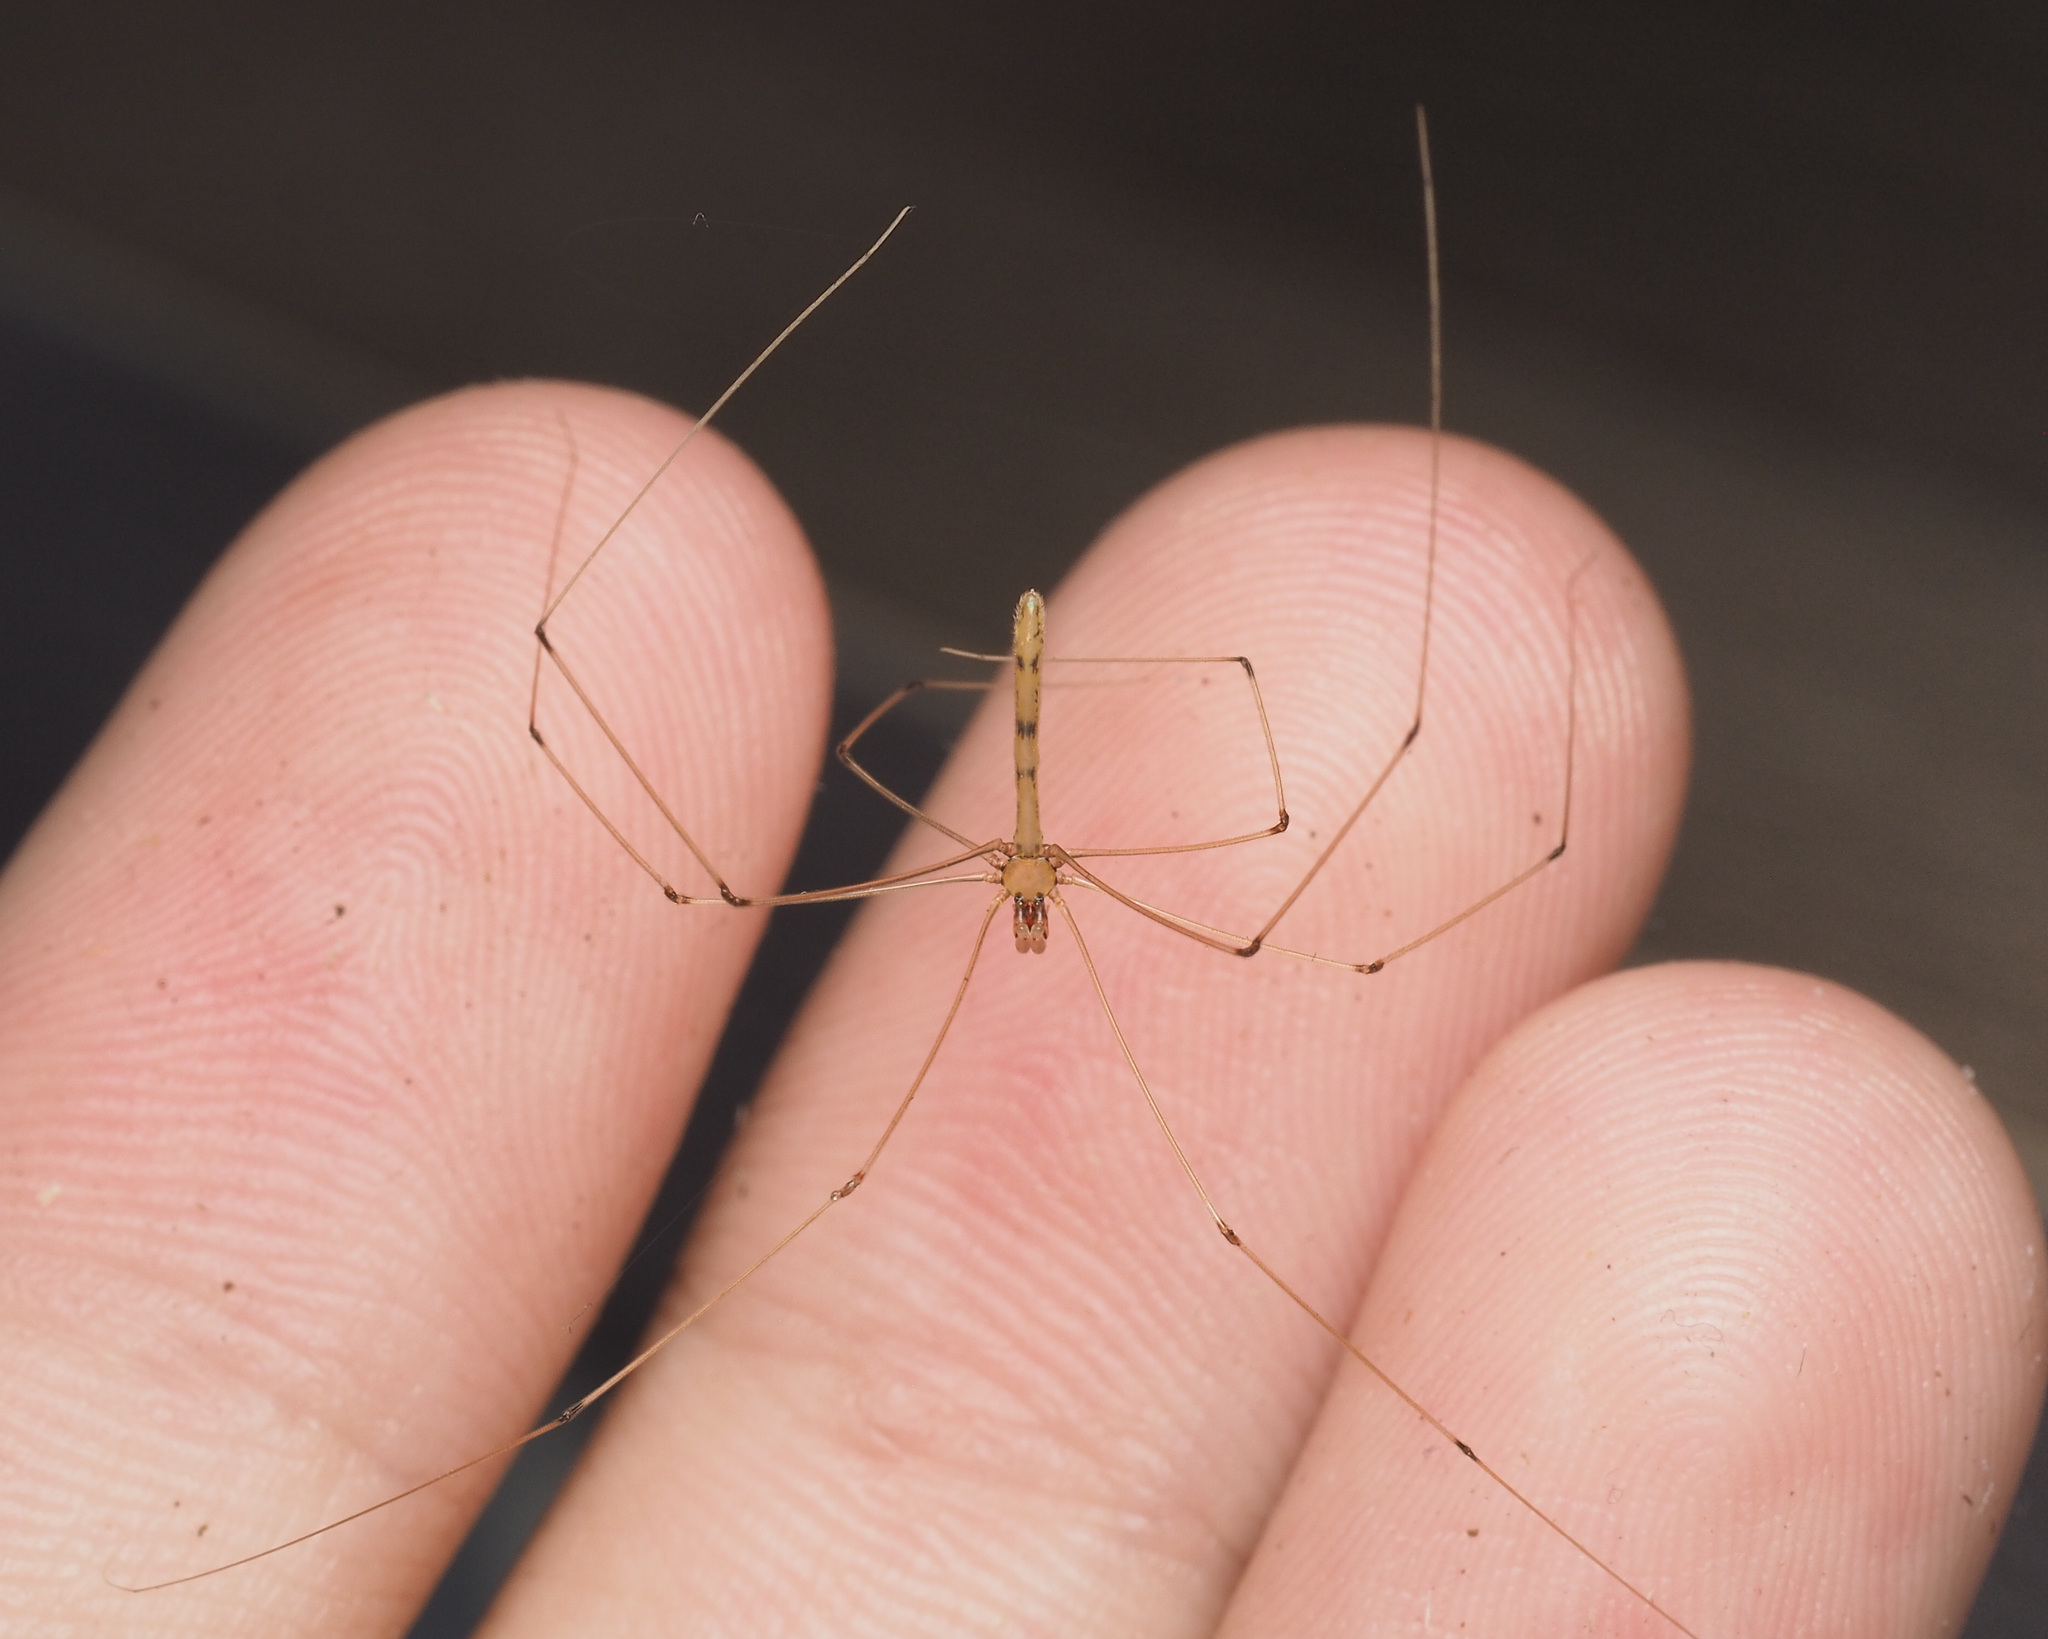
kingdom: Animalia
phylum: Arthropoda
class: Arachnida
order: Araneae
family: Pholcidae
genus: Micromerys
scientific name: Micromerys raveni
